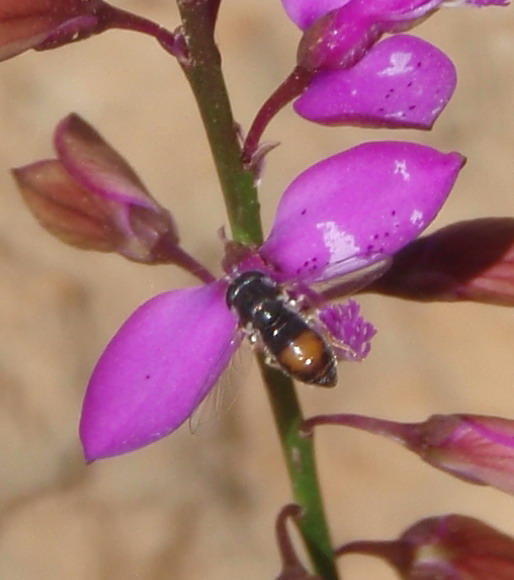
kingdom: Animalia
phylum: Arthropoda
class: Insecta
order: Diptera
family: Syrphidae
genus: Paragus
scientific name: Paragus haemorrhous
